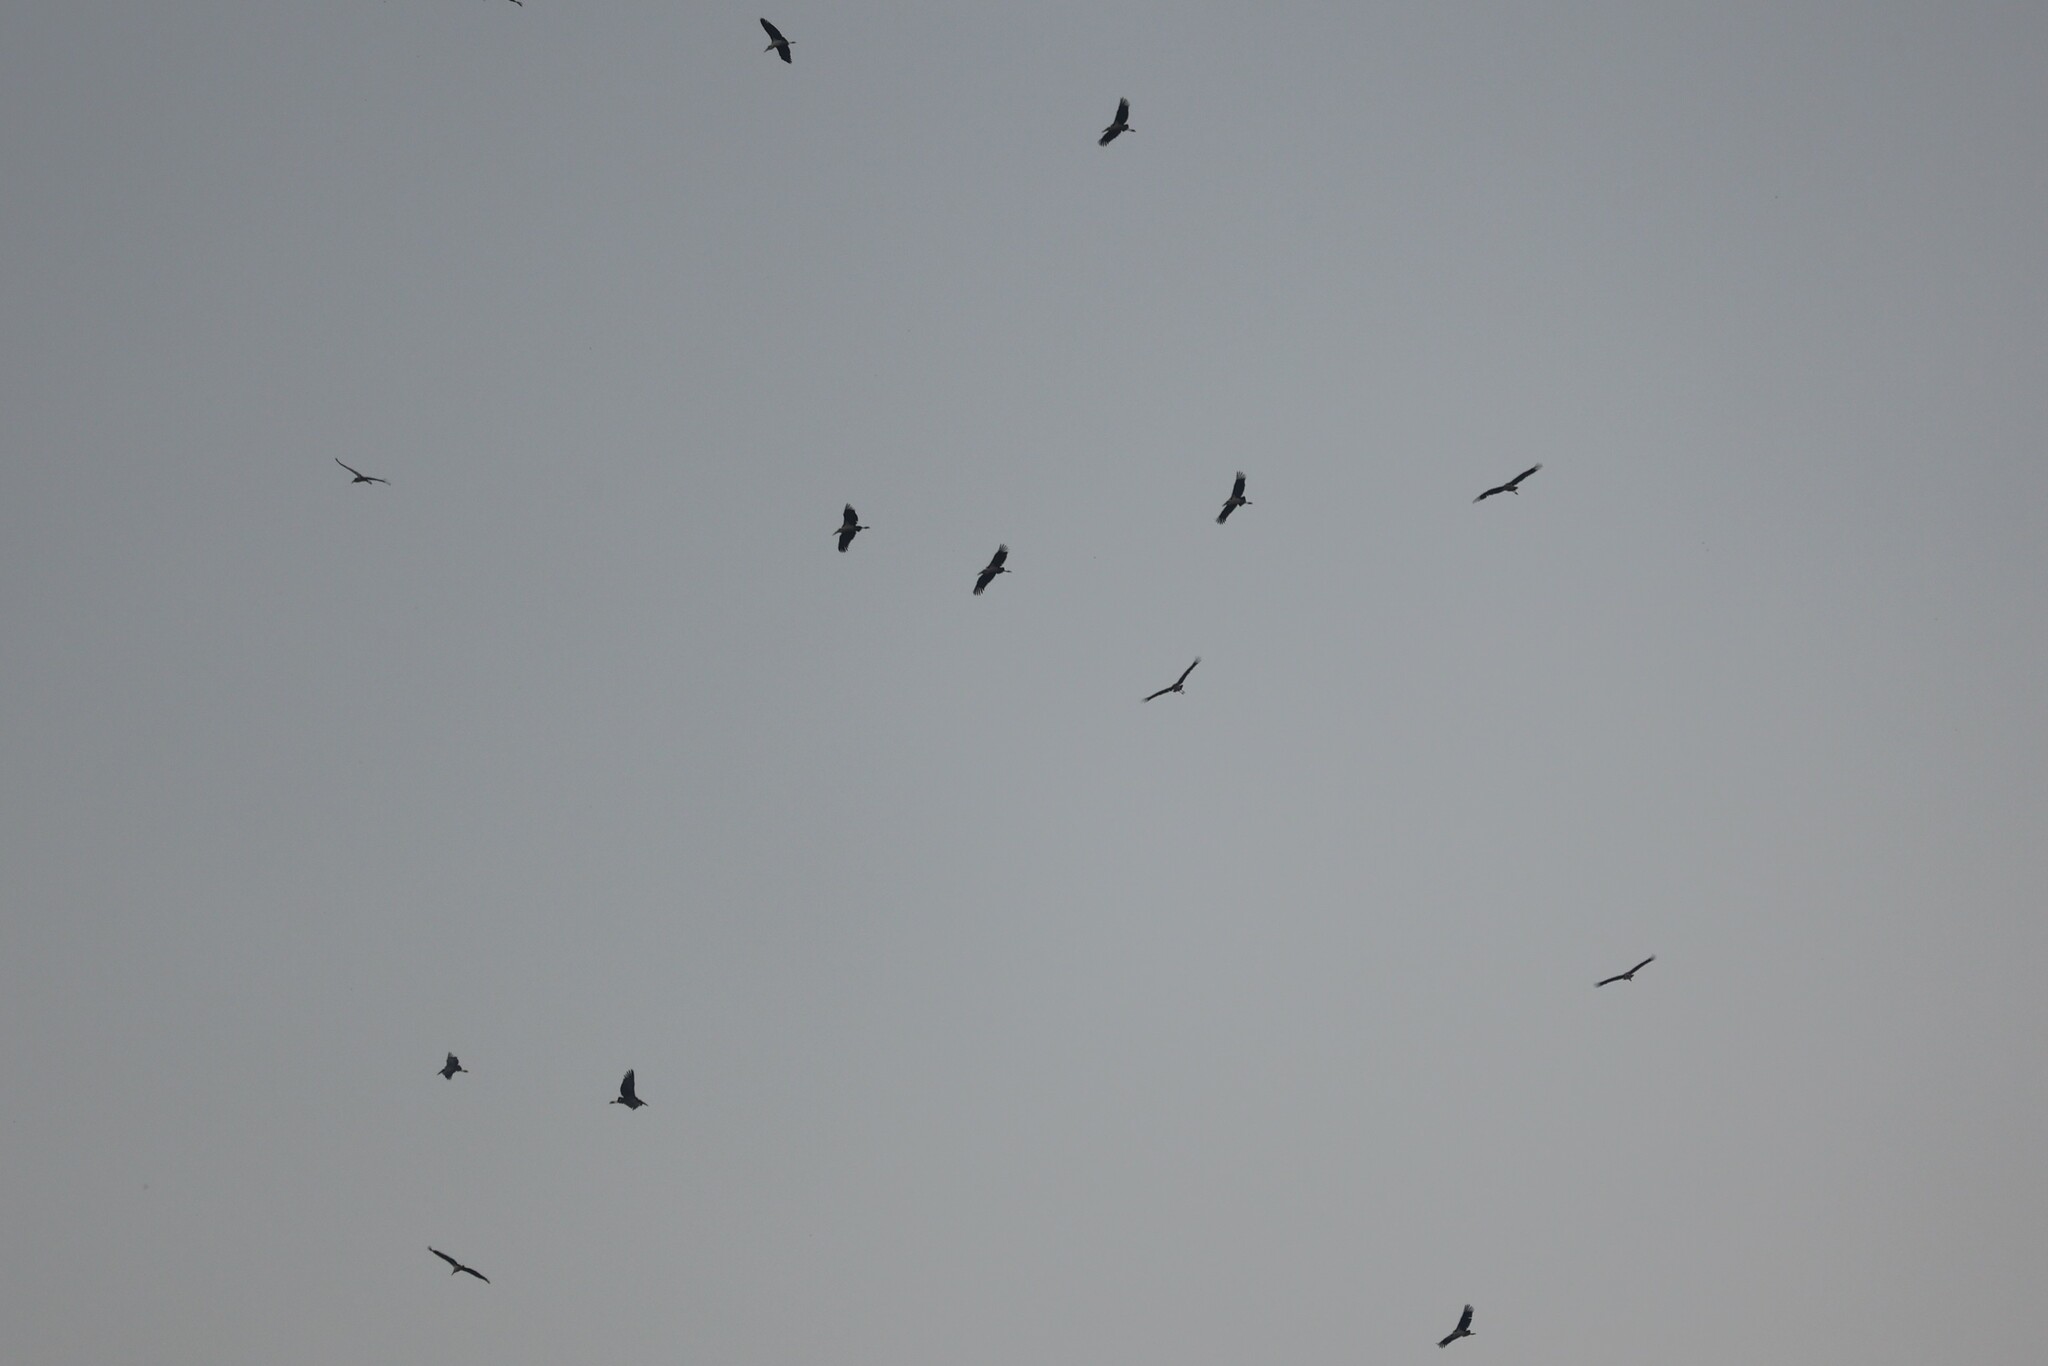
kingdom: Animalia
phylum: Chordata
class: Aves
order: Ciconiiformes
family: Ciconiidae
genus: Leptoptilos
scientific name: Leptoptilos crumenifer
